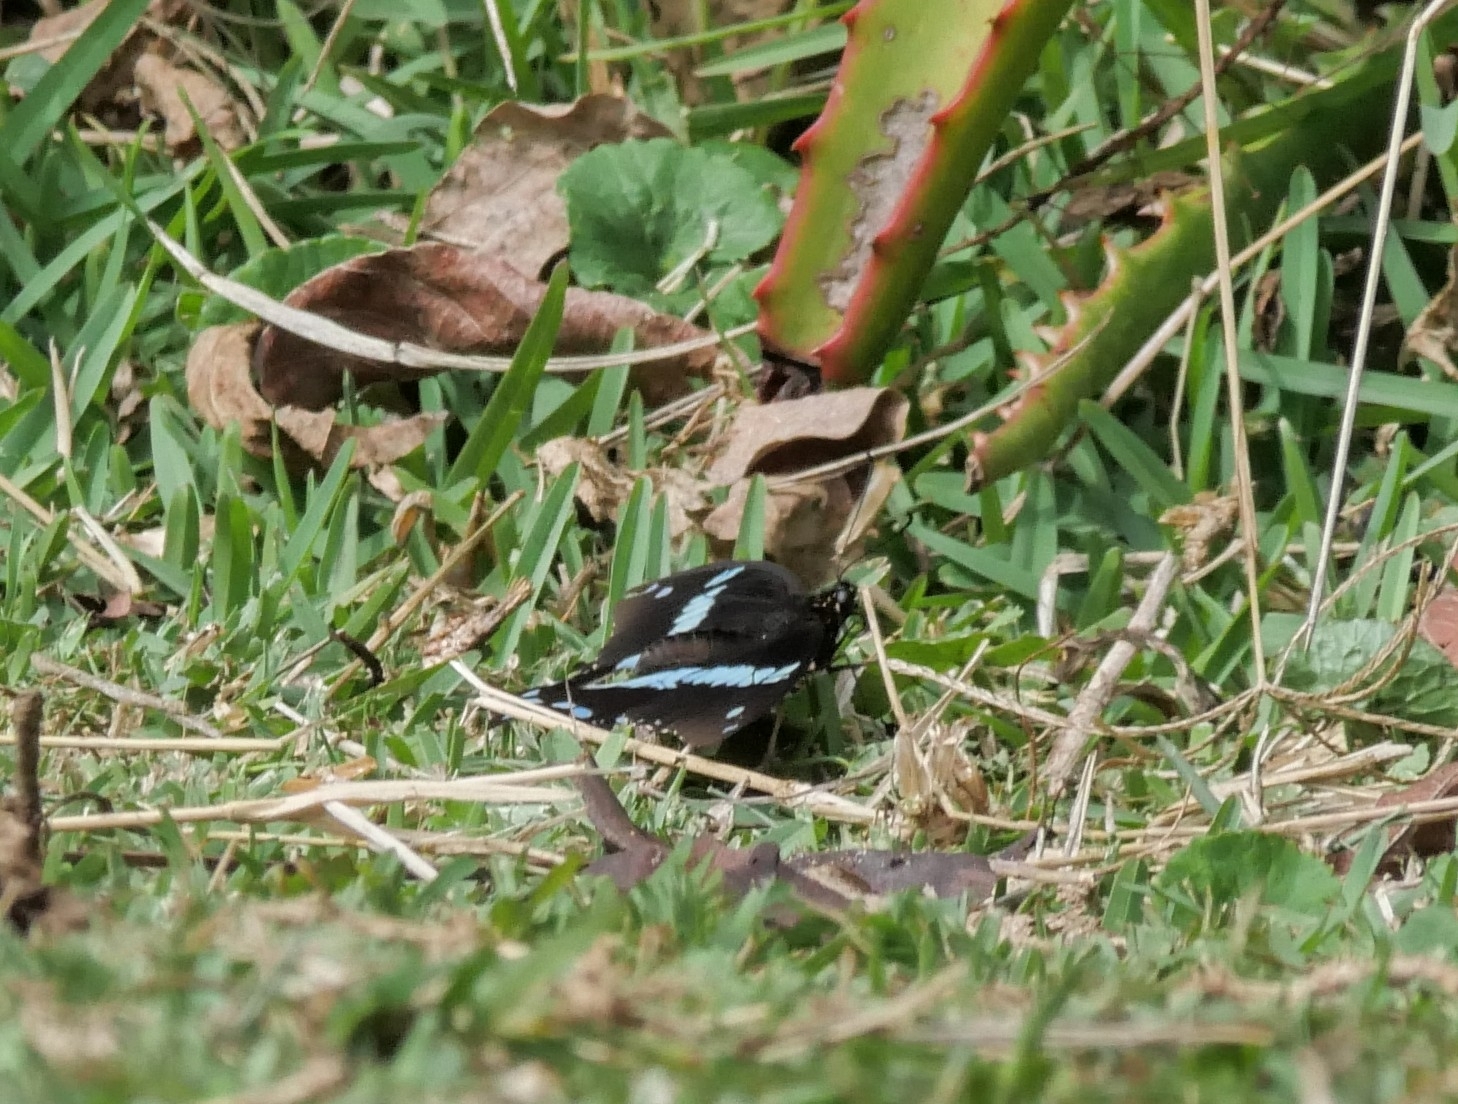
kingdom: Animalia
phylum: Arthropoda
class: Insecta
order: Lepidoptera
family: Papilionidae
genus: Papilio
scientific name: Papilio nireus
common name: Greenbanded swallowtail
